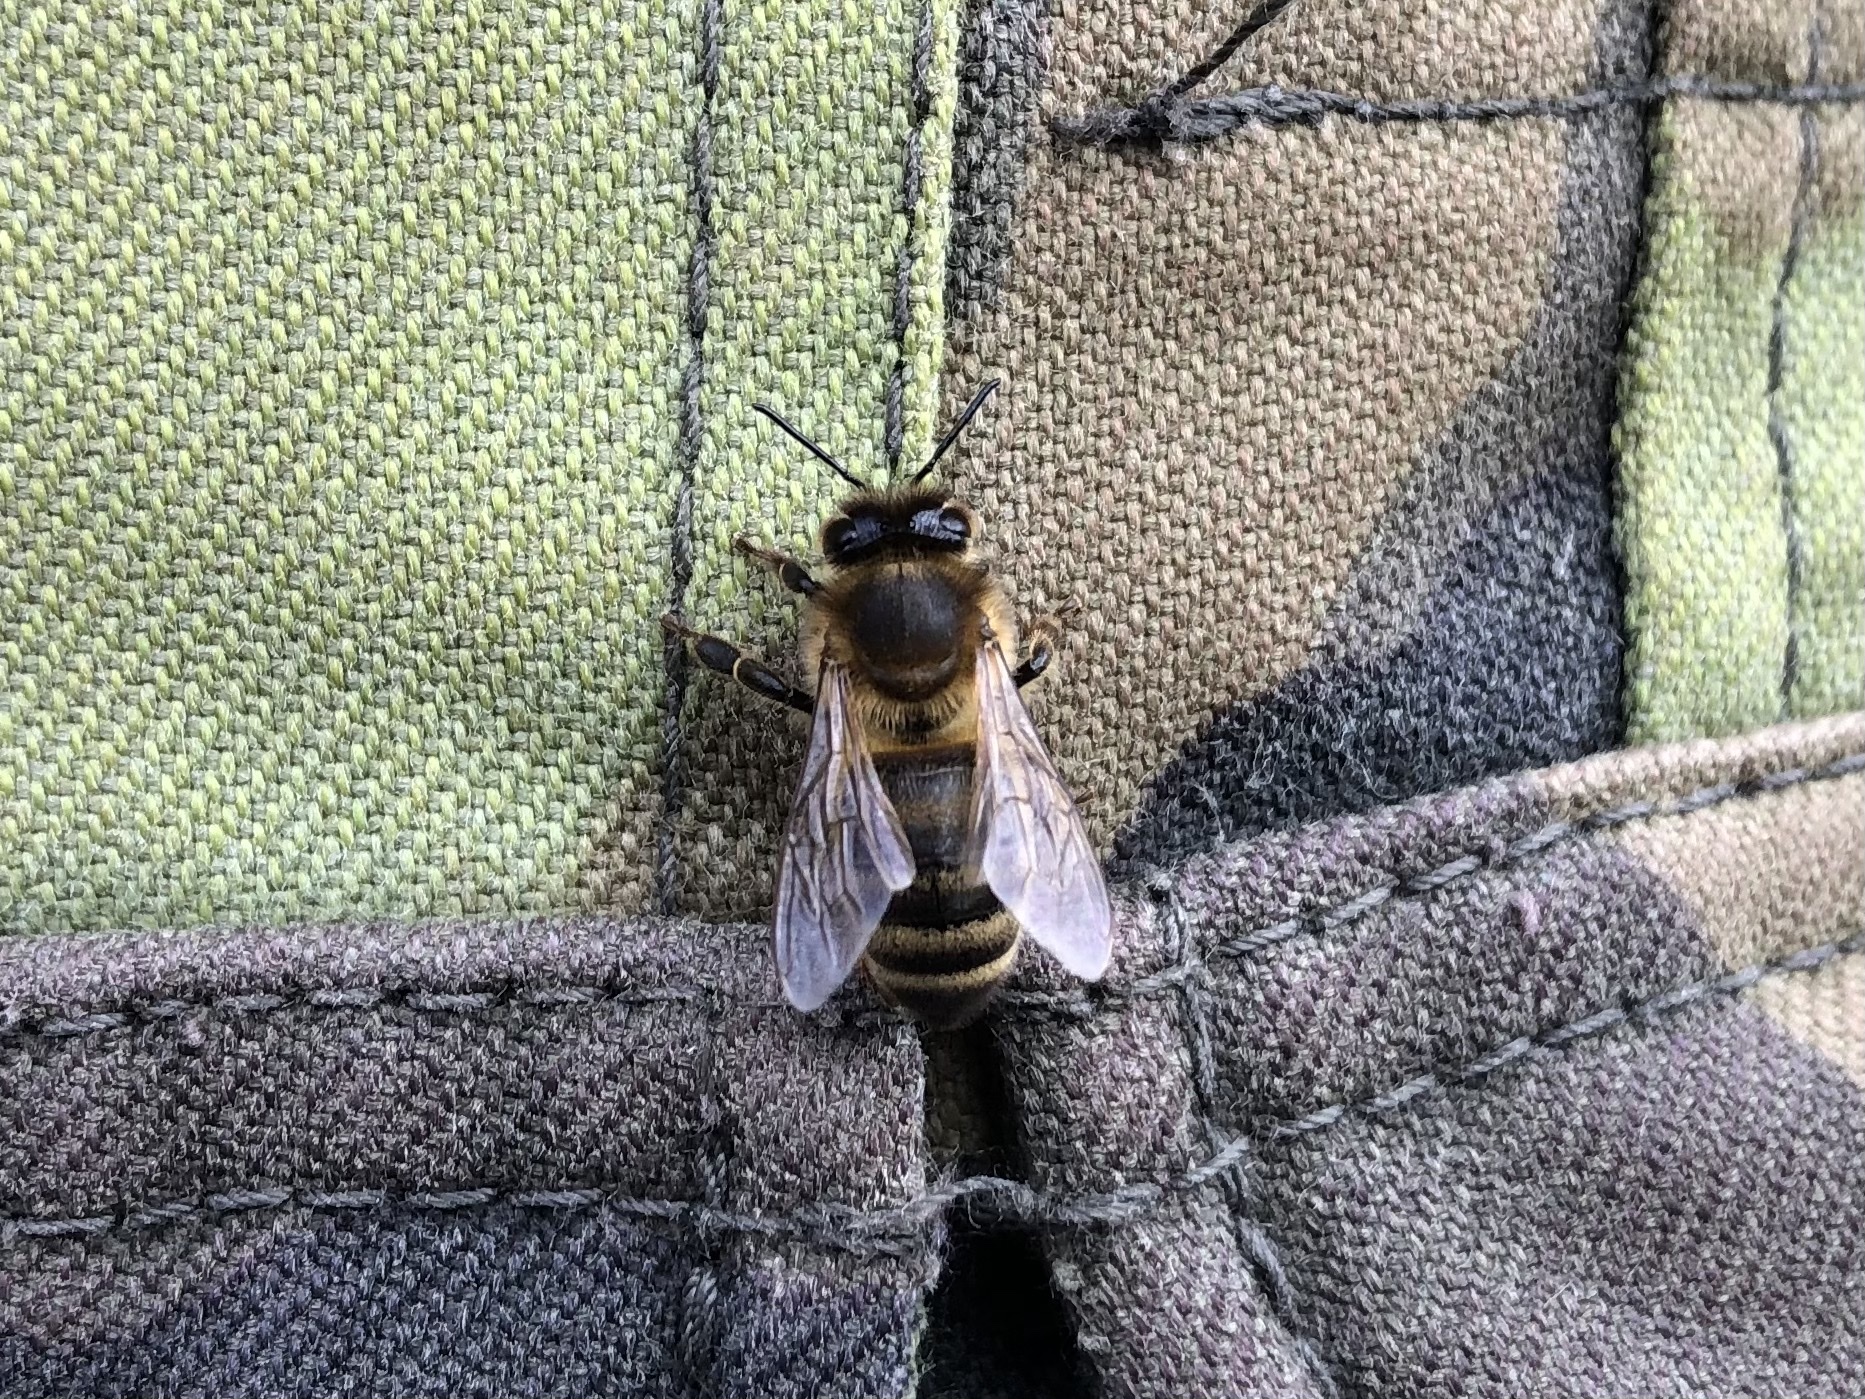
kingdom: Animalia
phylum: Arthropoda
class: Insecta
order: Hymenoptera
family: Apidae
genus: Apis
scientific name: Apis mellifera
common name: Honey bee
